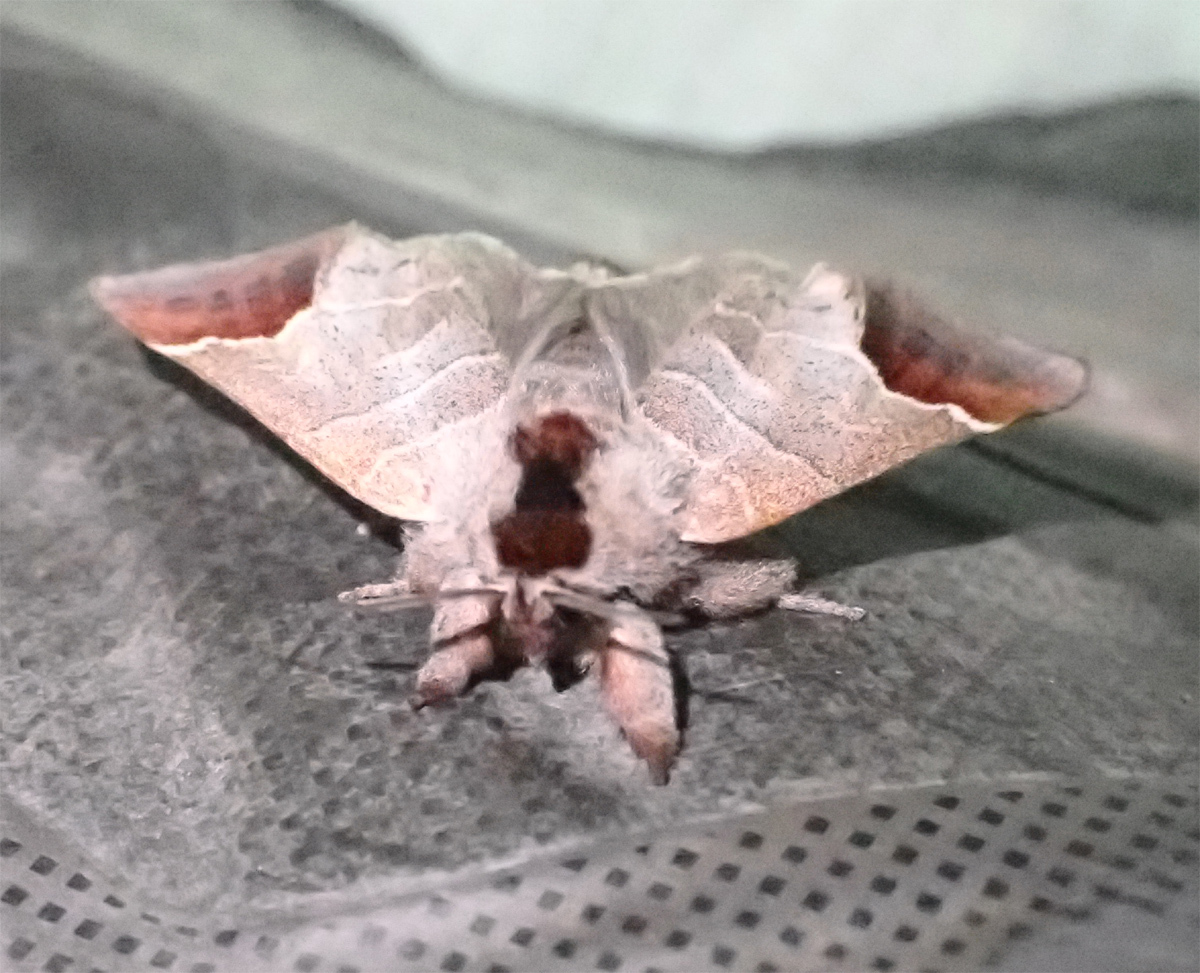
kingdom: Animalia
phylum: Arthropoda
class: Insecta
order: Lepidoptera
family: Notodontidae
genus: Clostera
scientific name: Clostera curtula
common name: Chocolate-tip
